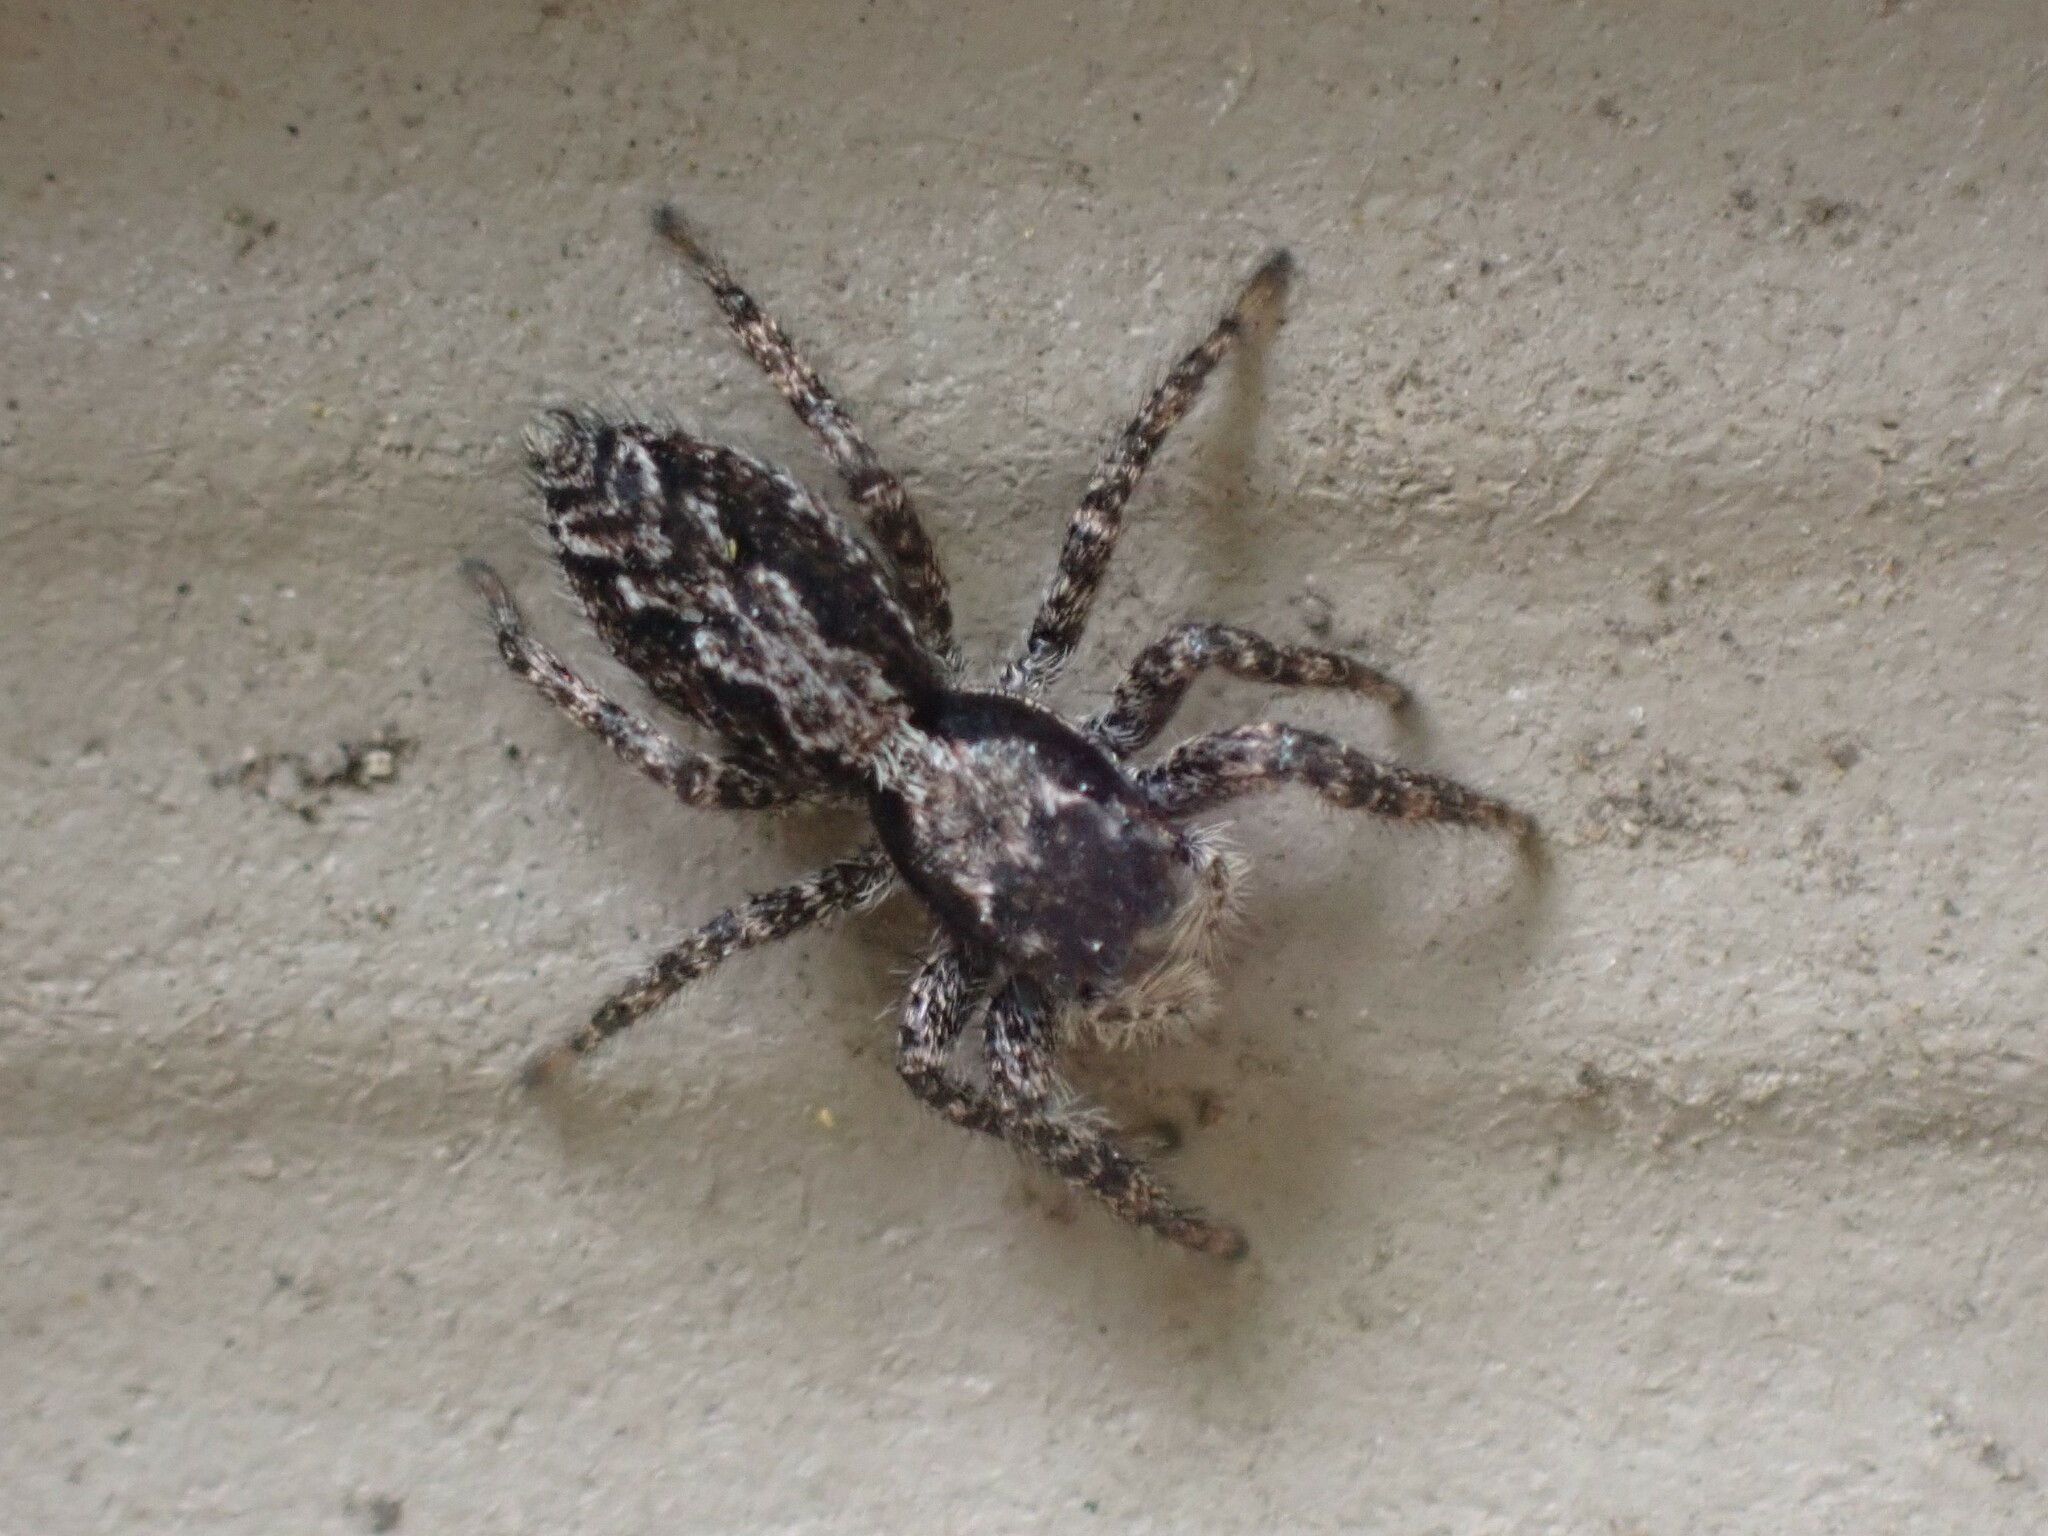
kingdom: Animalia
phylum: Arthropoda
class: Arachnida
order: Araneae
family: Salticidae
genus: Platycryptus
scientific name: Platycryptus californicus
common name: Jumping spiders
